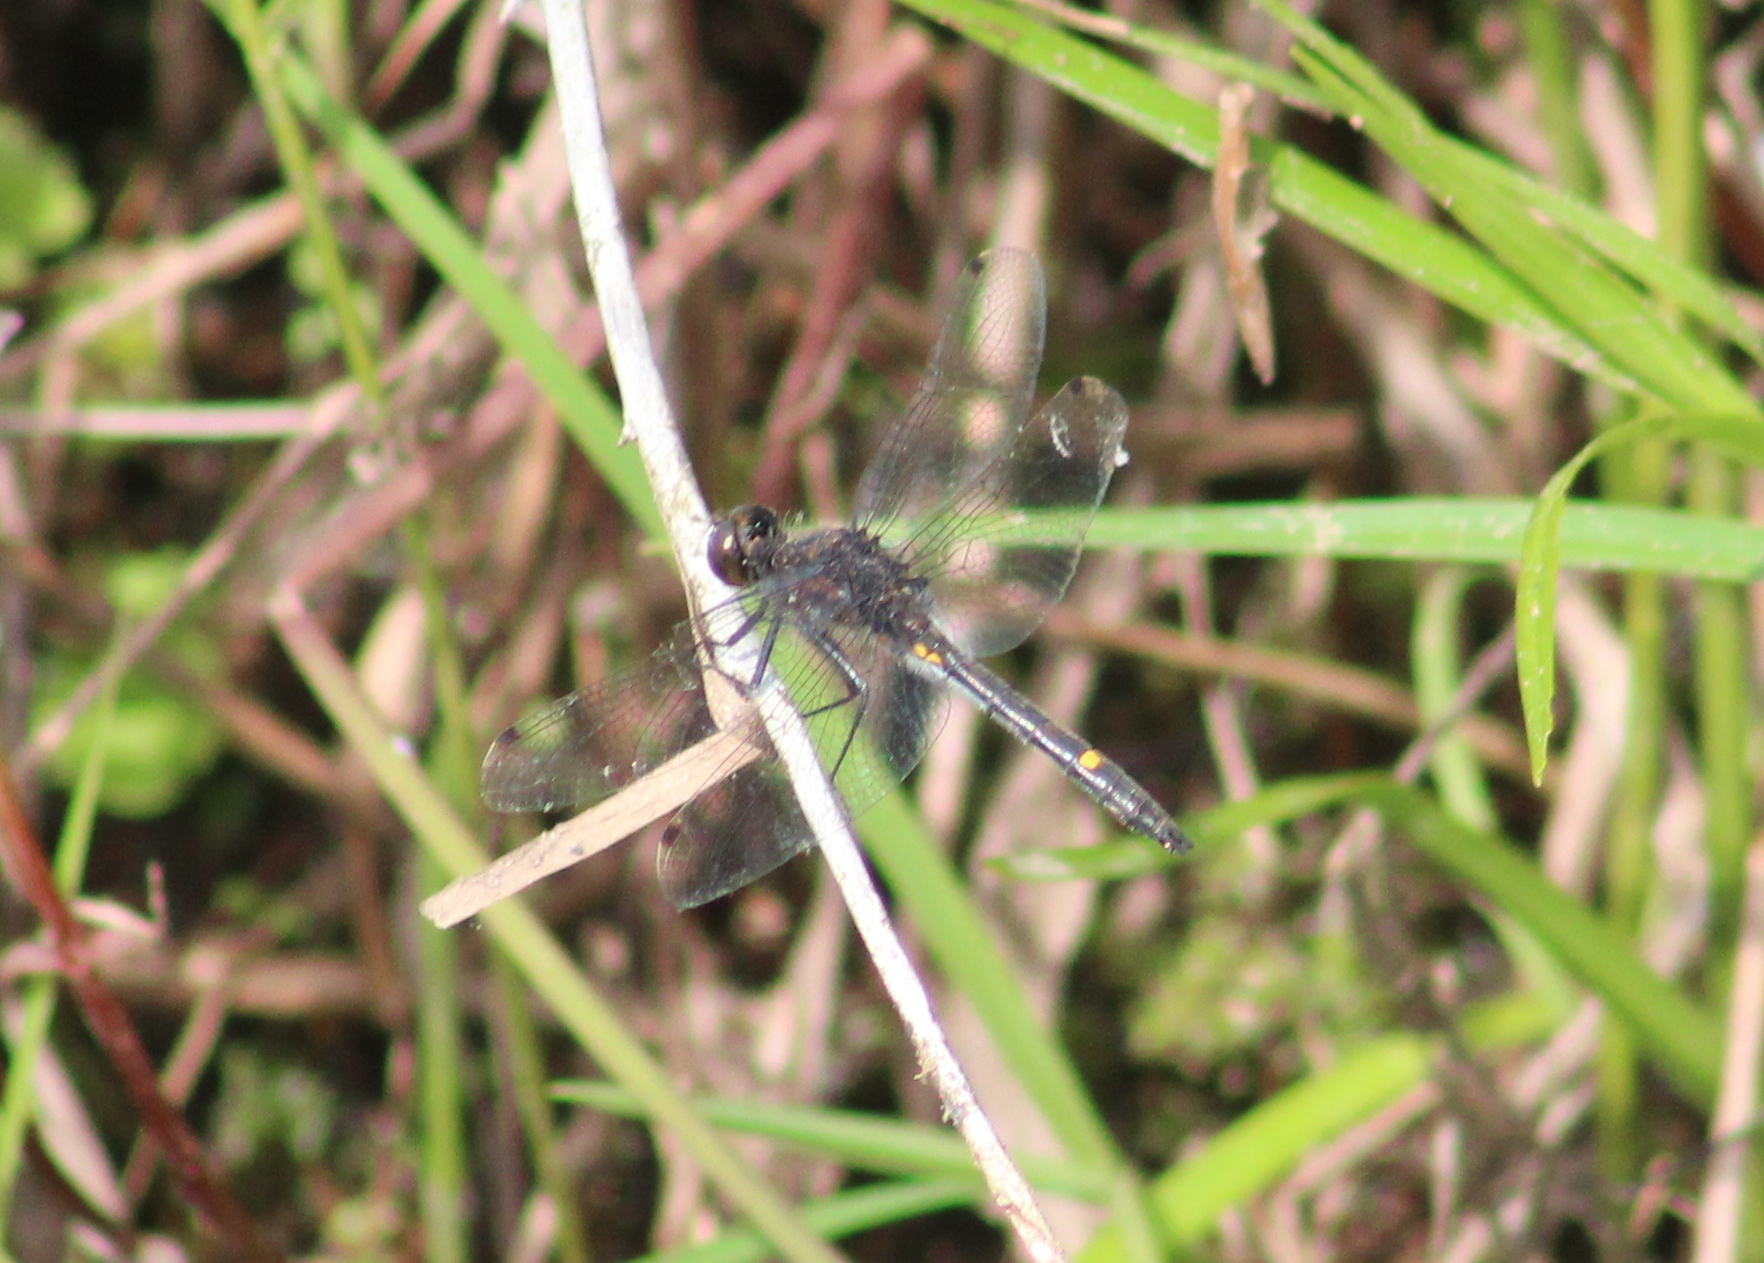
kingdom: Animalia
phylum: Arthropoda
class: Insecta
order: Odonata
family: Libellulidae
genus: Leucorrhinia
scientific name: Leucorrhinia intacta
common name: Dot-tailed whiteface
